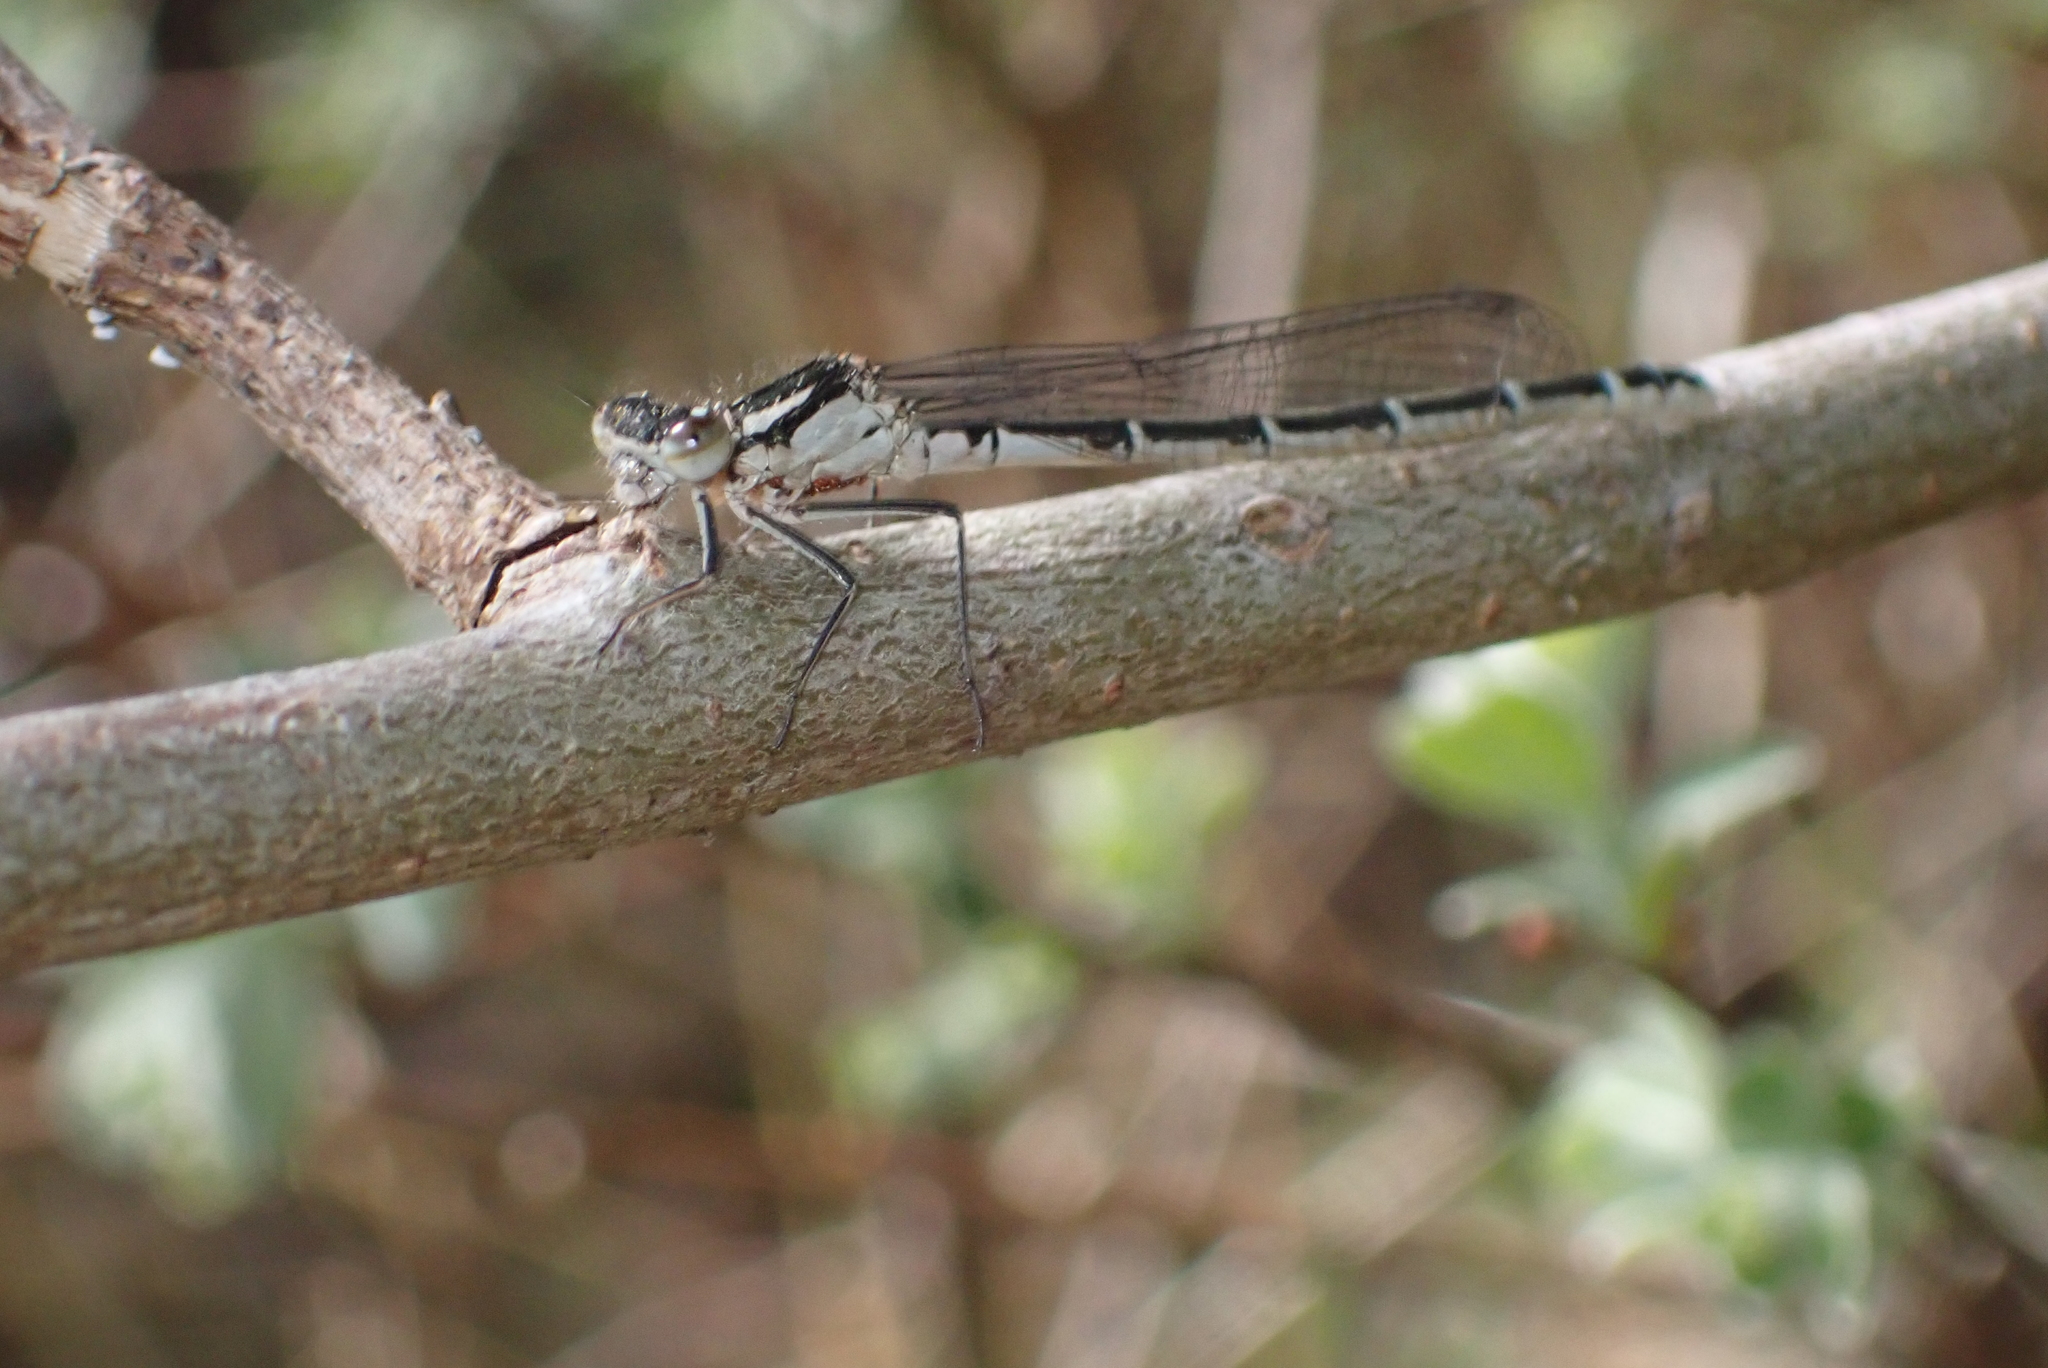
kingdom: Animalia
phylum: Arthropoda
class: Insecta
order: Odonata
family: Coenagrionidae
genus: Enallagma
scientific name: Enallagma cyathigerum
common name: Common blue damselfly
